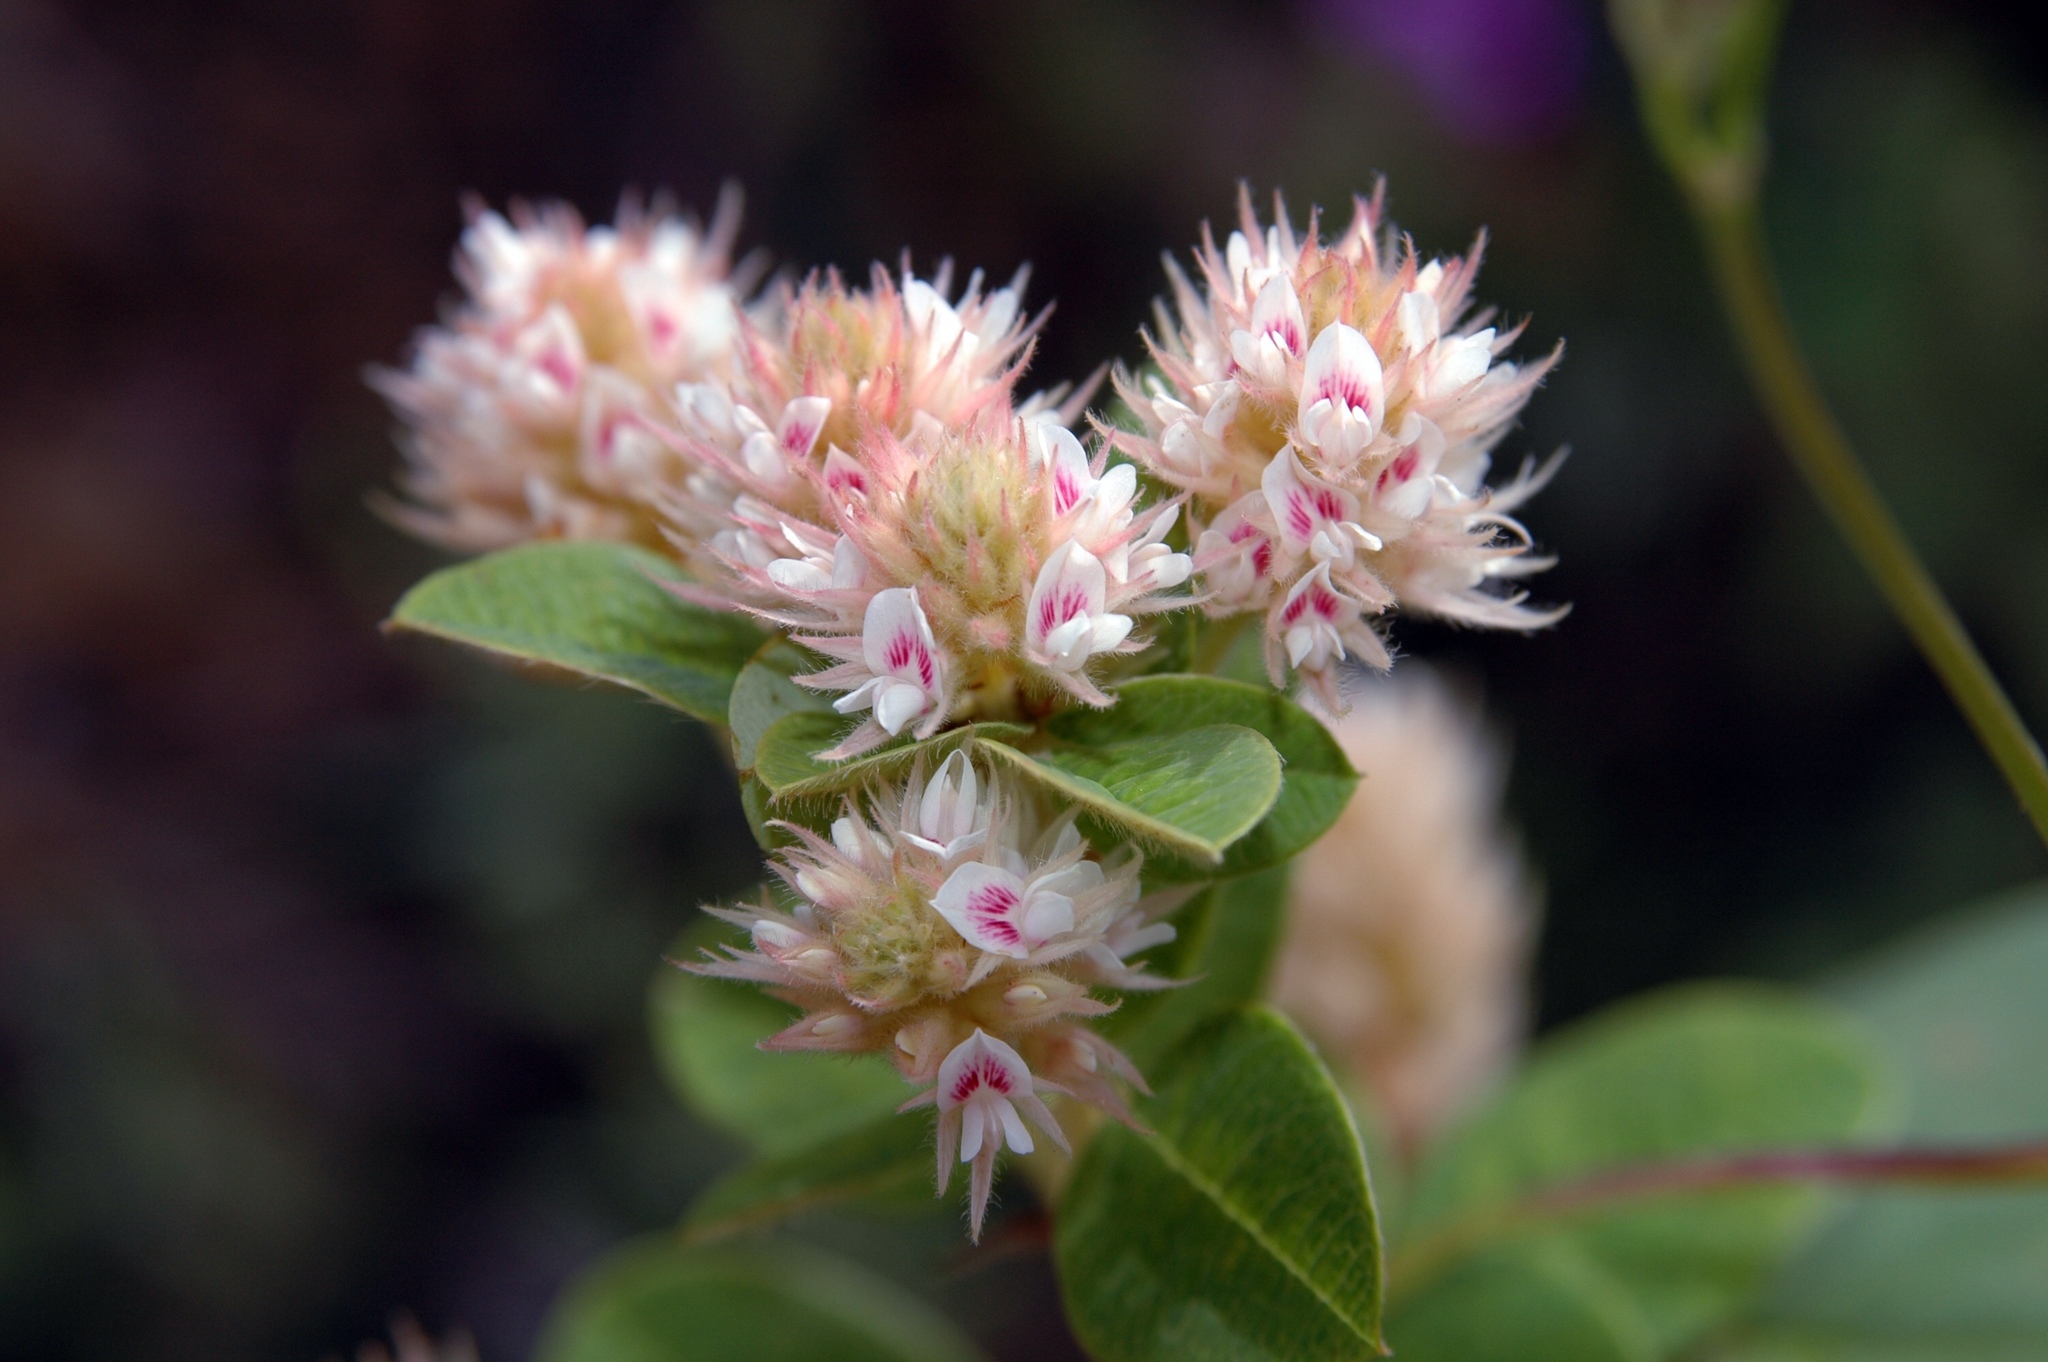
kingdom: Plantae
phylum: Tracheophyta
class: Magnoliopsida
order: Fabales
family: Fabaceae
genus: Lespedeza
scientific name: Lespedeza hirta
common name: Hairy lespedeza
